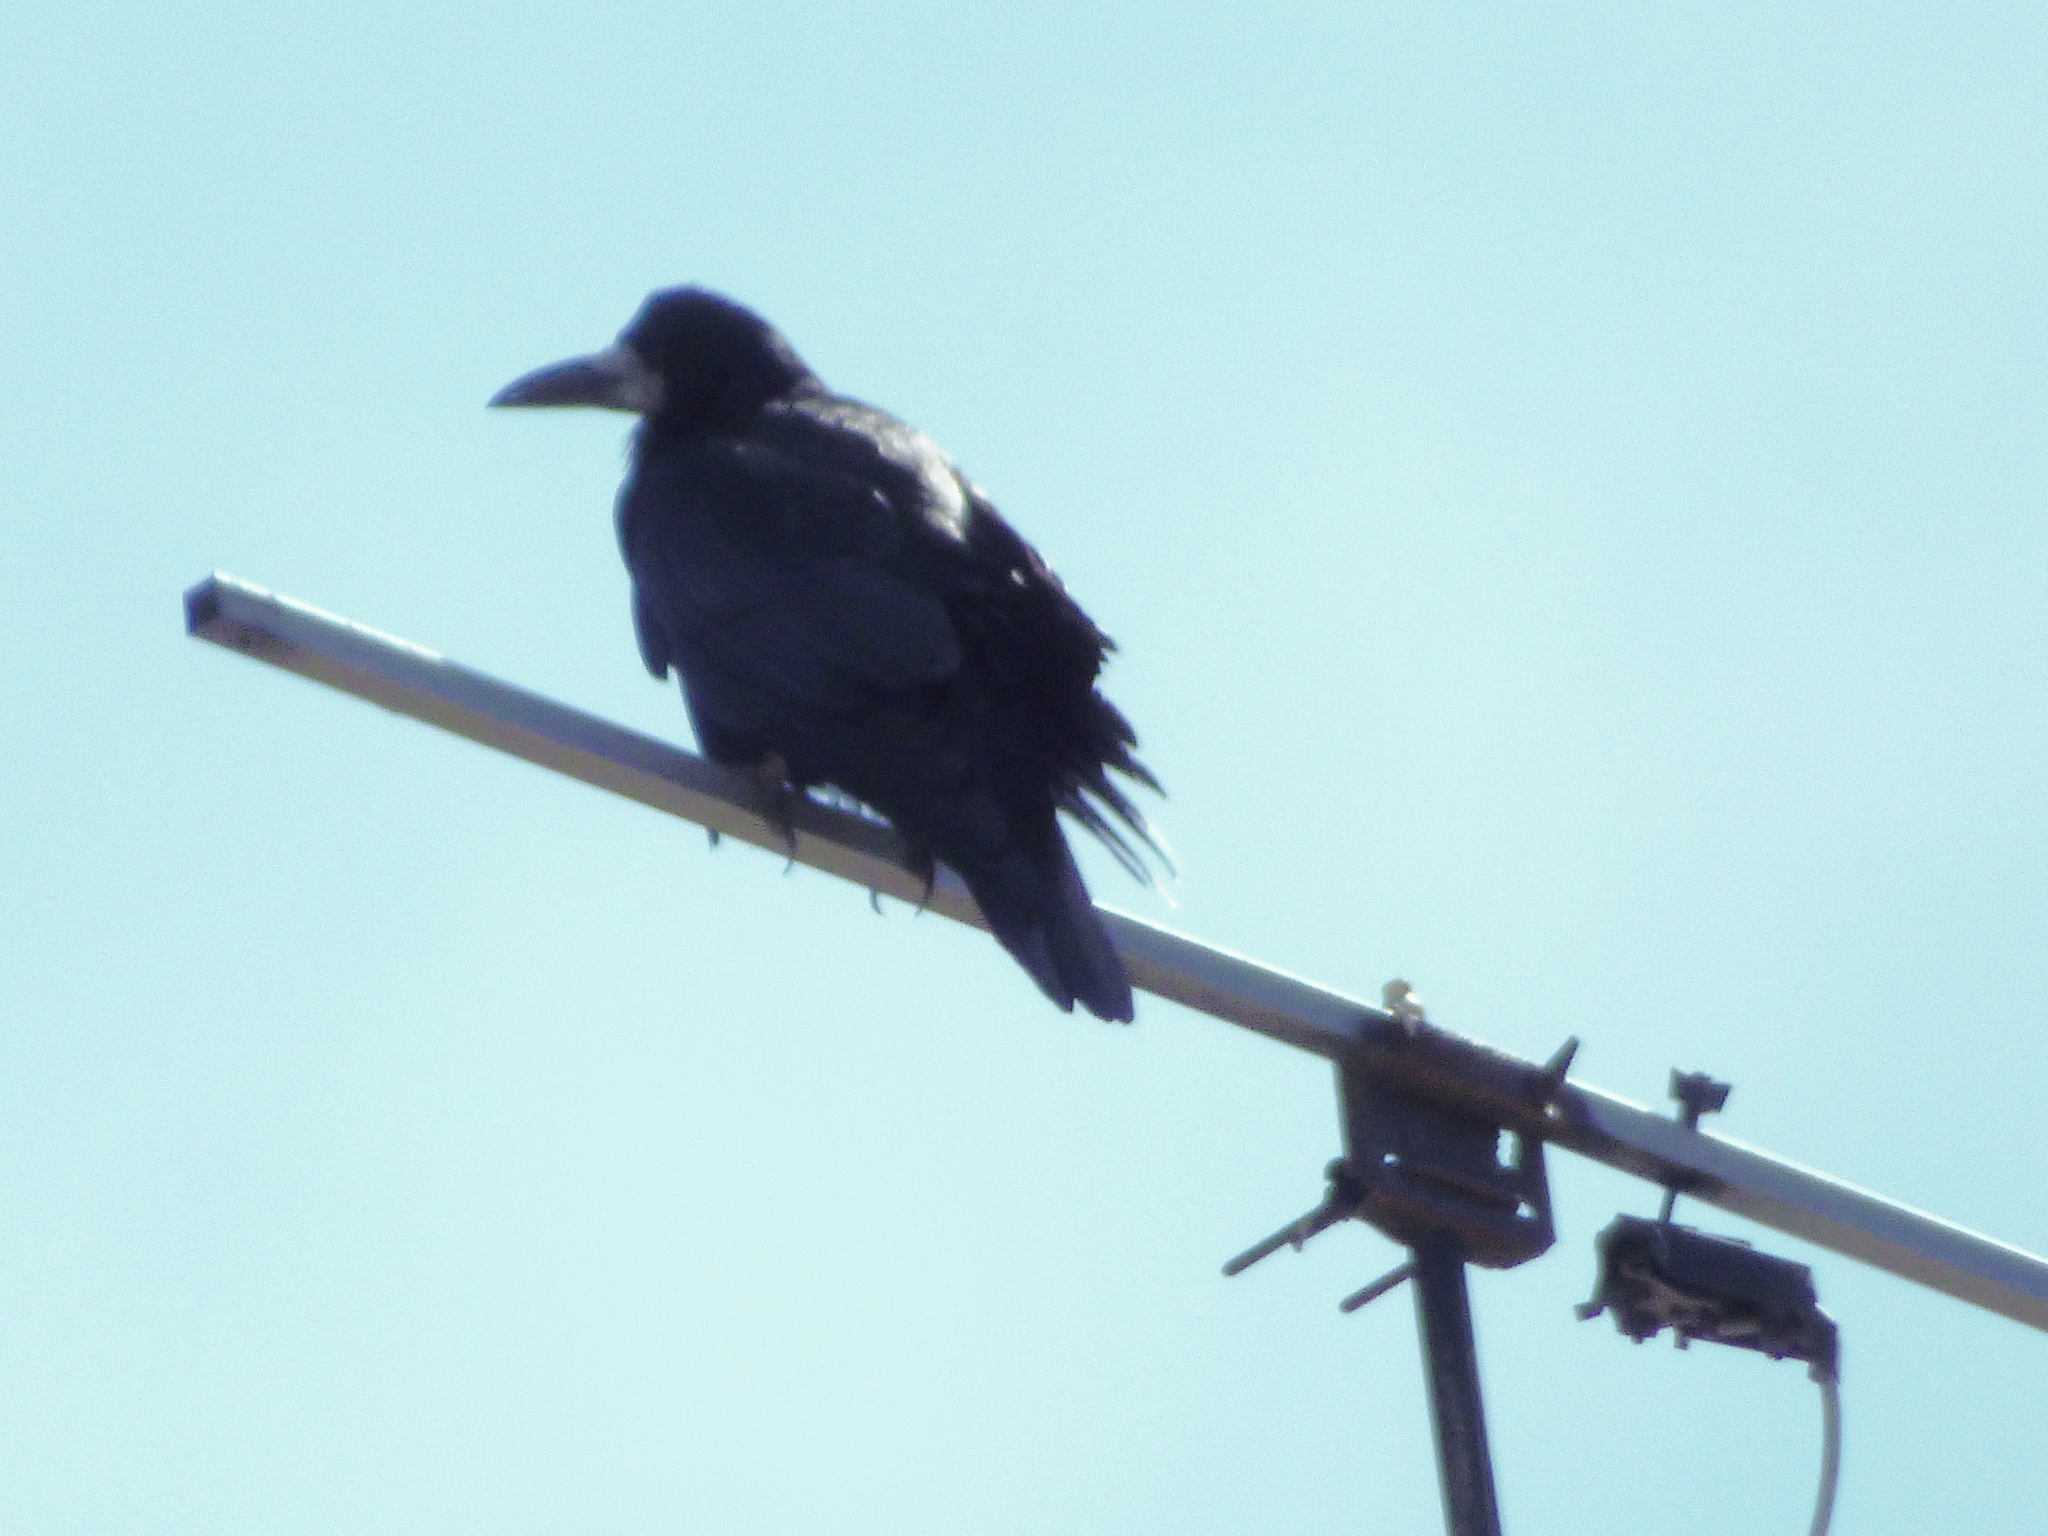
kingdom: Animalia
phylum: Chordata
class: Aves
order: Passeriformes
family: Corvidae
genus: Corvus
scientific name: Corvus frugilegus
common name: Rook
